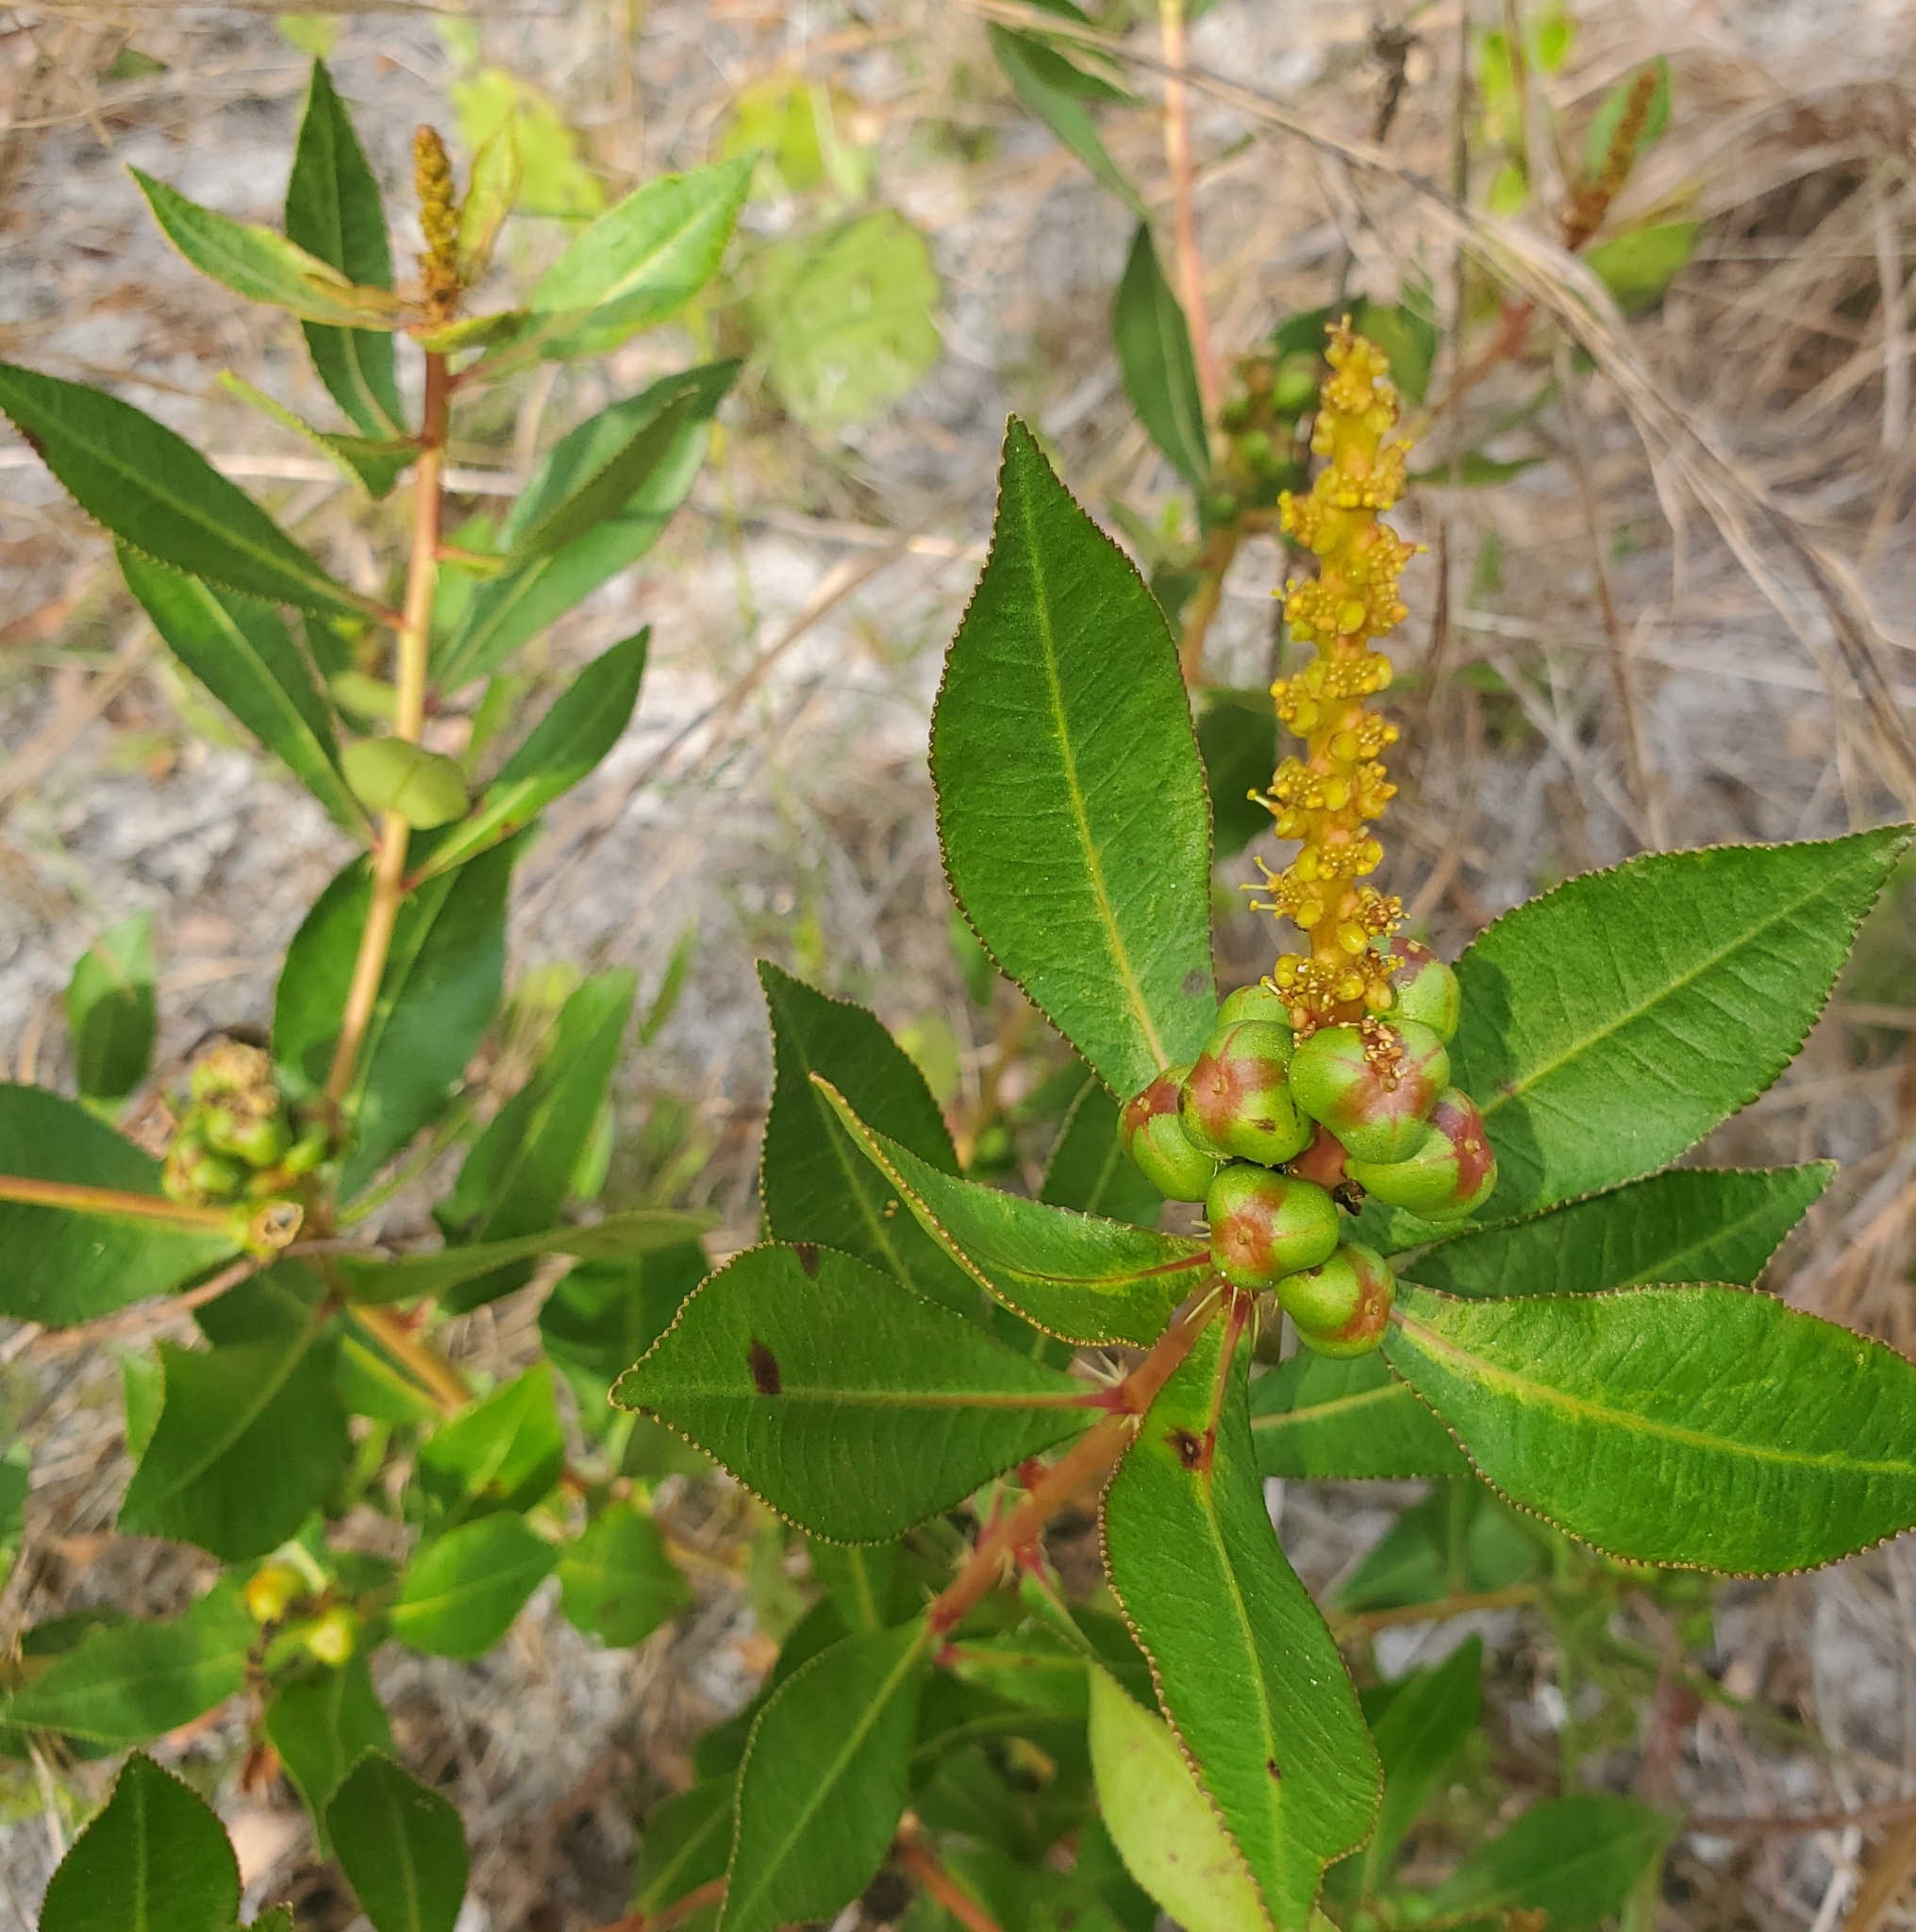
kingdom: Plantae
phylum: Tracheophyta
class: Magnoliopsida
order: Malpighiales
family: Euphorbiaceae
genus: Stillingia
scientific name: Stillingia sylvatica
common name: Queen's-delight
